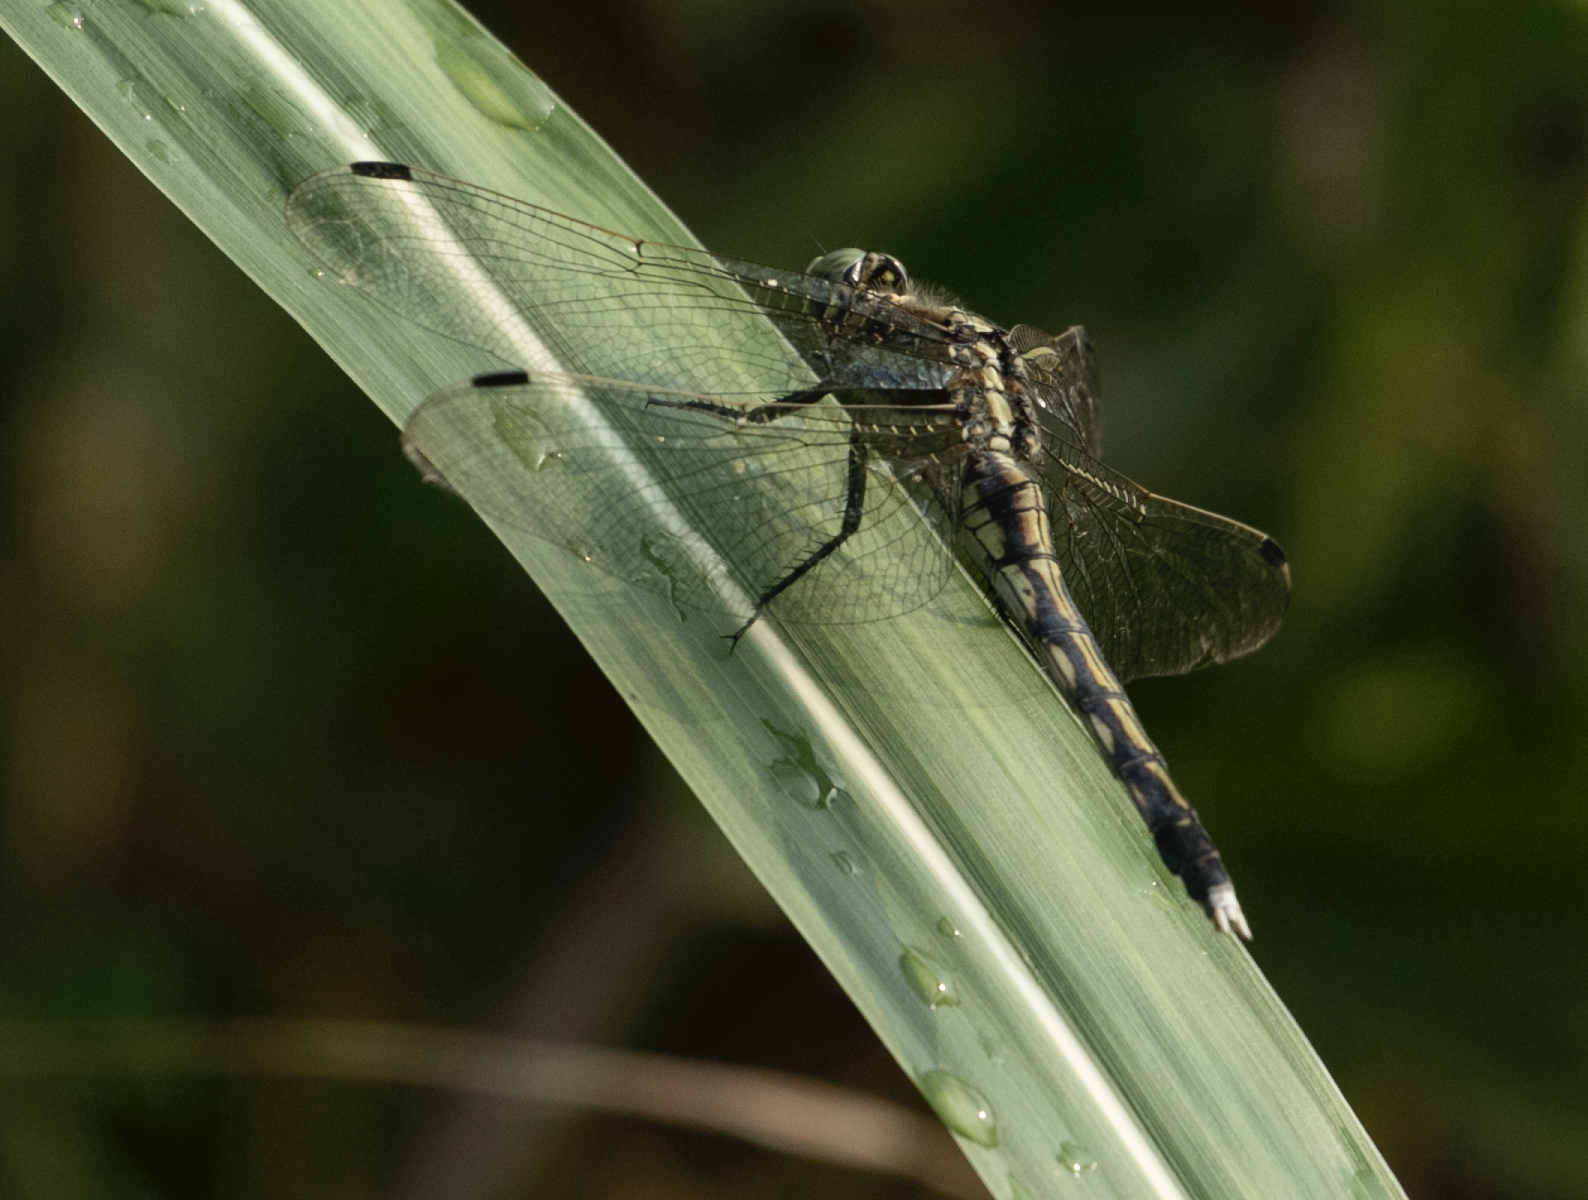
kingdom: Animalia
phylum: Arthropoda
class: Insecta
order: Odonata
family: Libellulidae
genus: Orthetrum
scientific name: Orthetrum albistylum
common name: White-tailed skimmer
